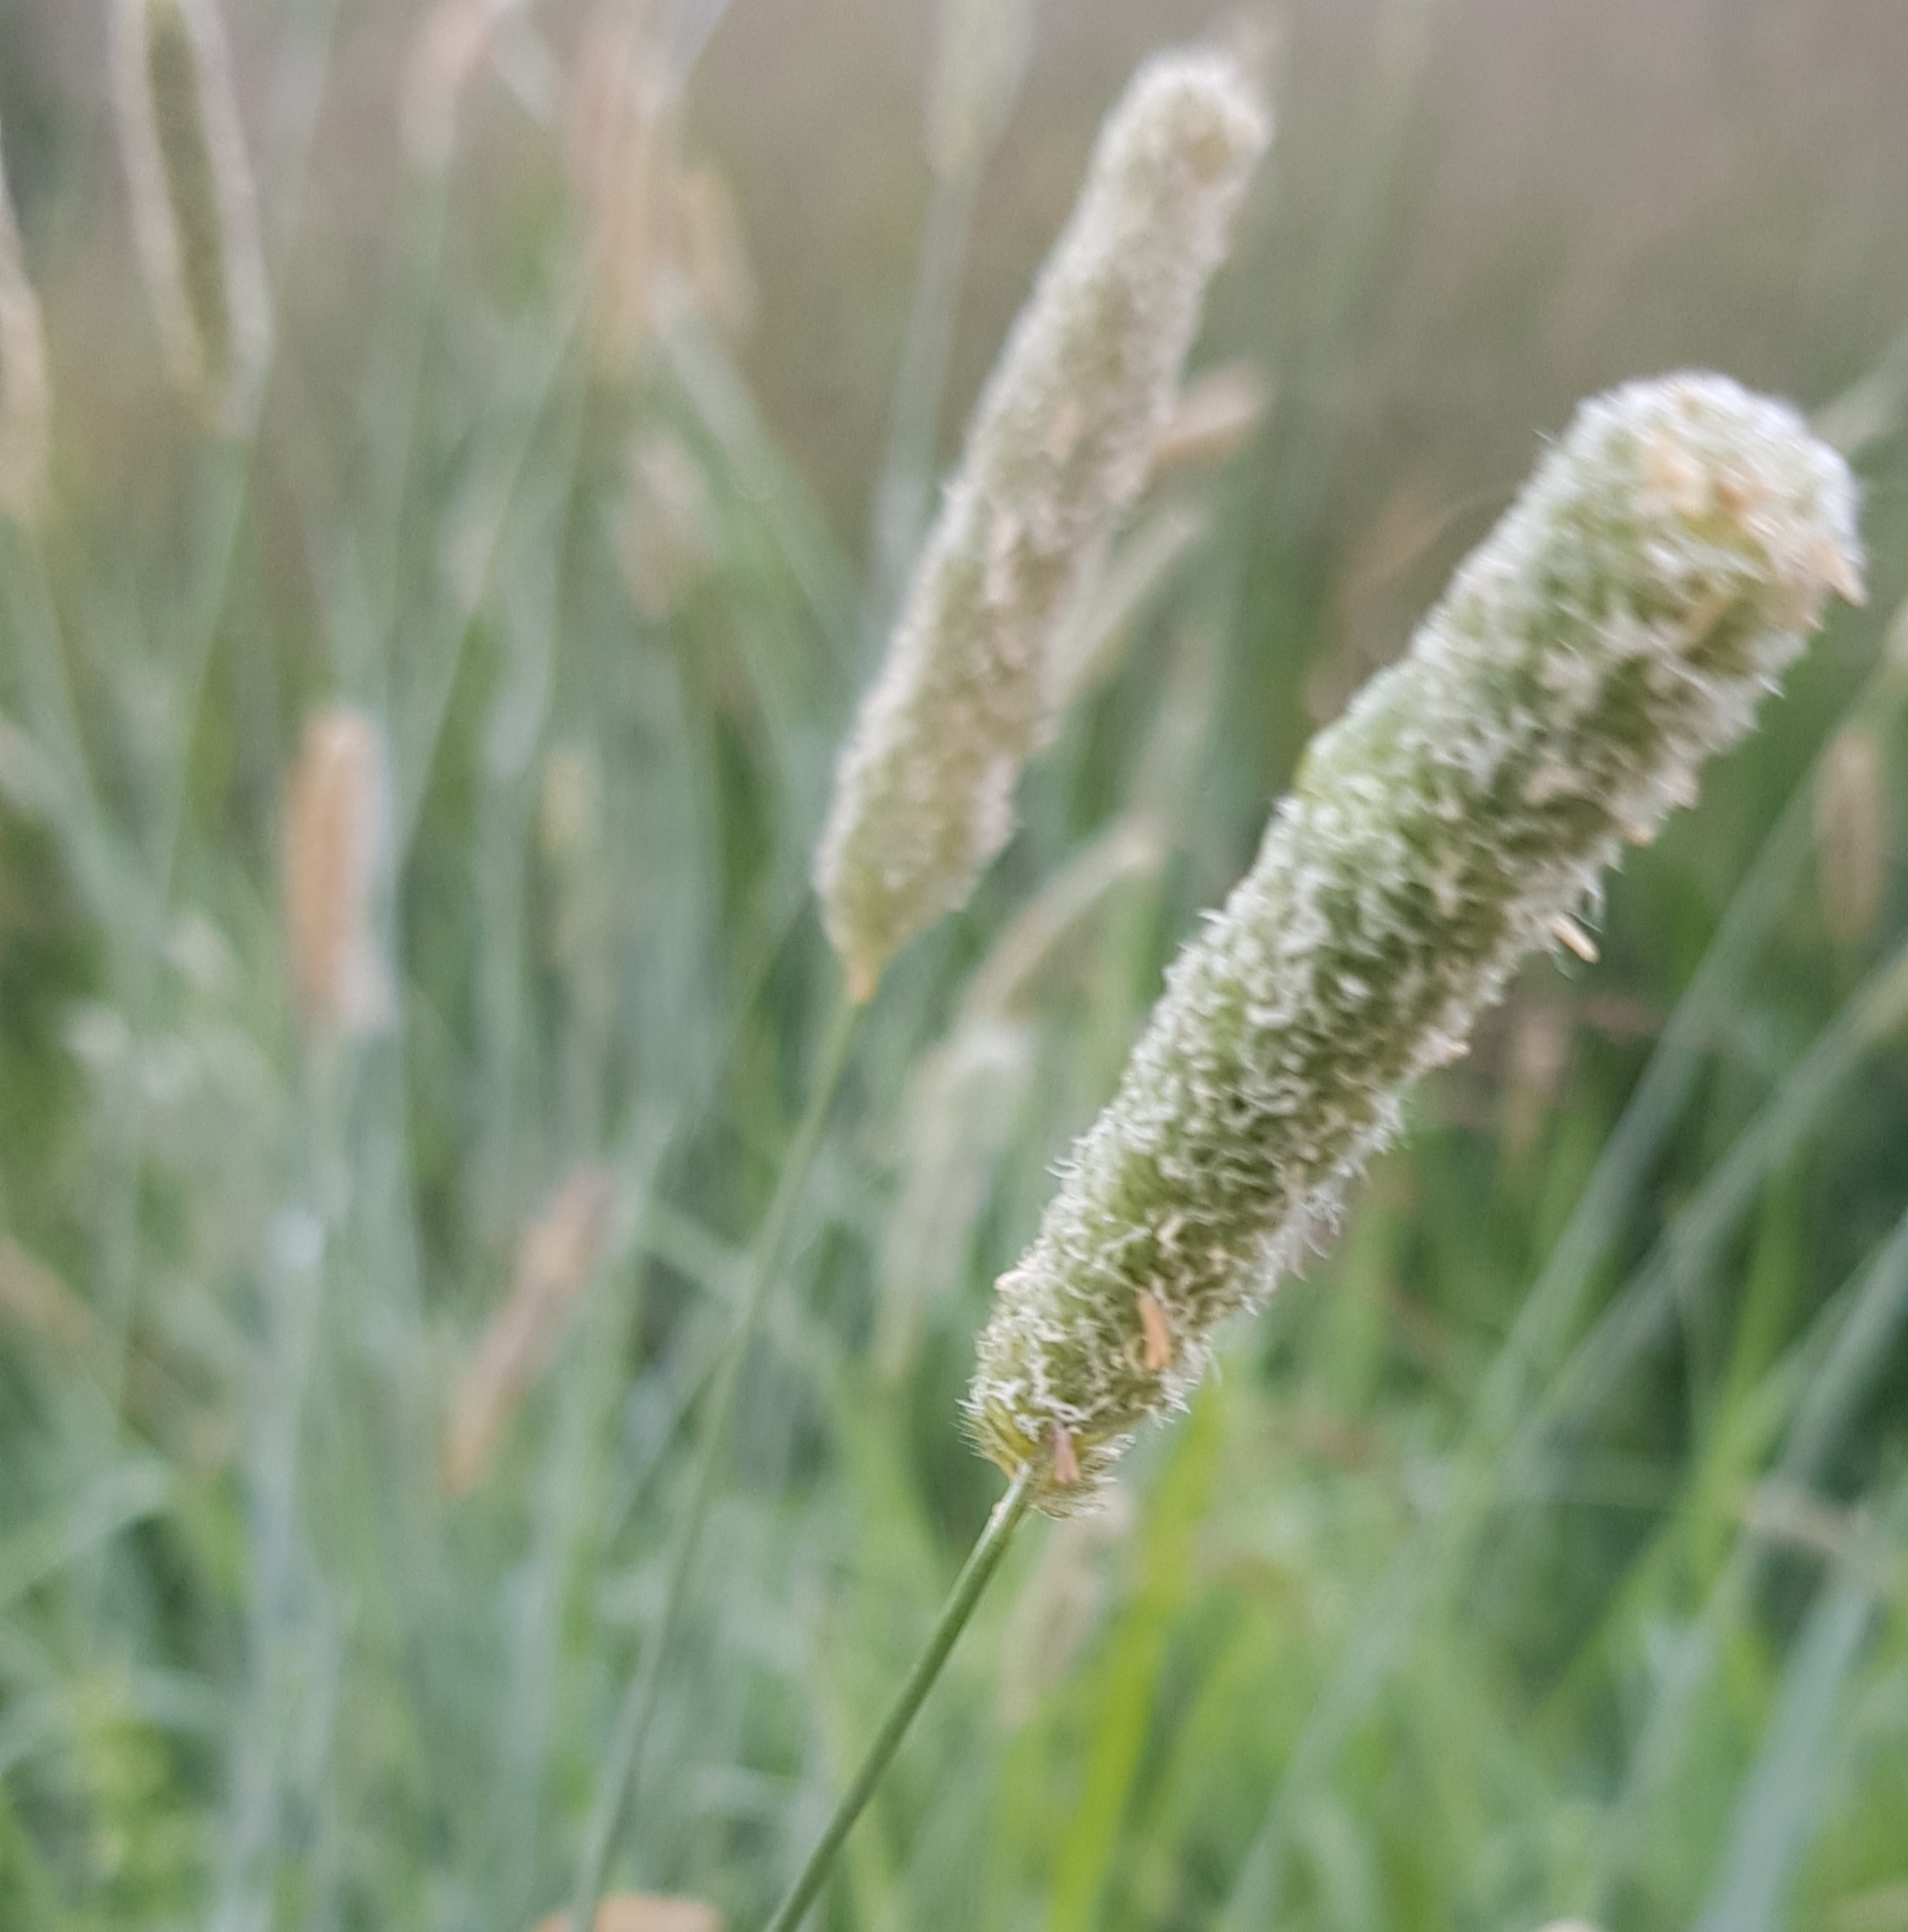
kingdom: Plantae
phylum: Tracheophyta
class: Liliopsida
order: Poales
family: Poaceae
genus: Alopecurus
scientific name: Alopecurus pratensis
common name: Meadow foxtail
